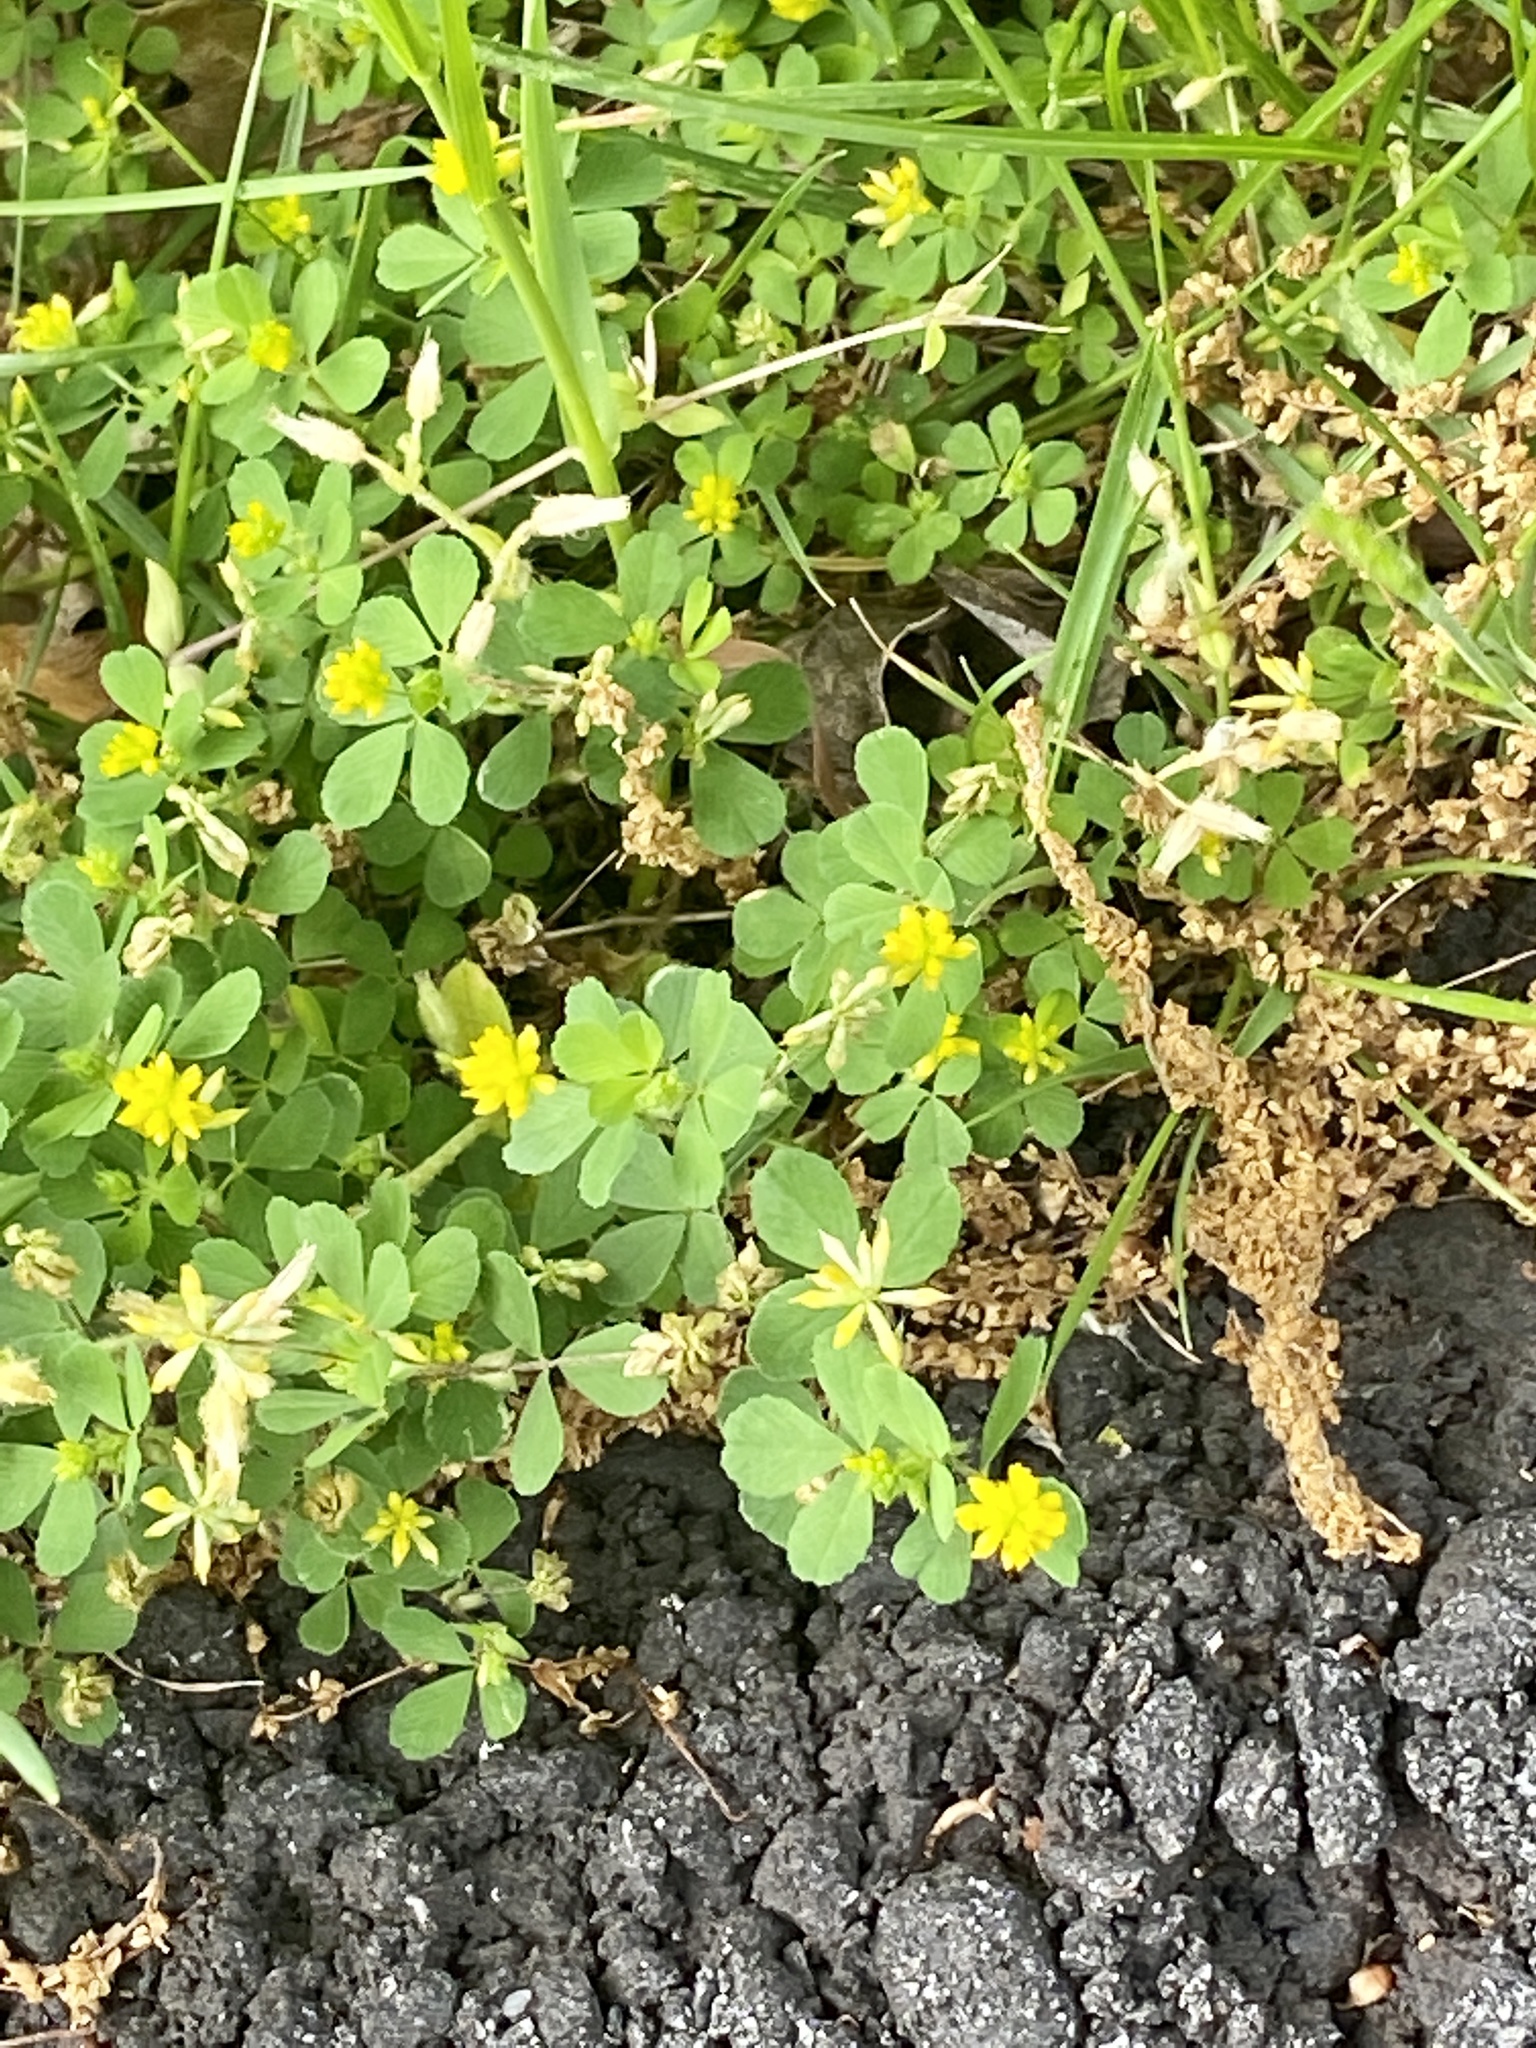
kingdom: Plantae
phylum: Tracheophyta
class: Magnoliopsida
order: Fabales
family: Fabaceae
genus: Trifolium
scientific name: Trifolium dubium
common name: Suckling clover
